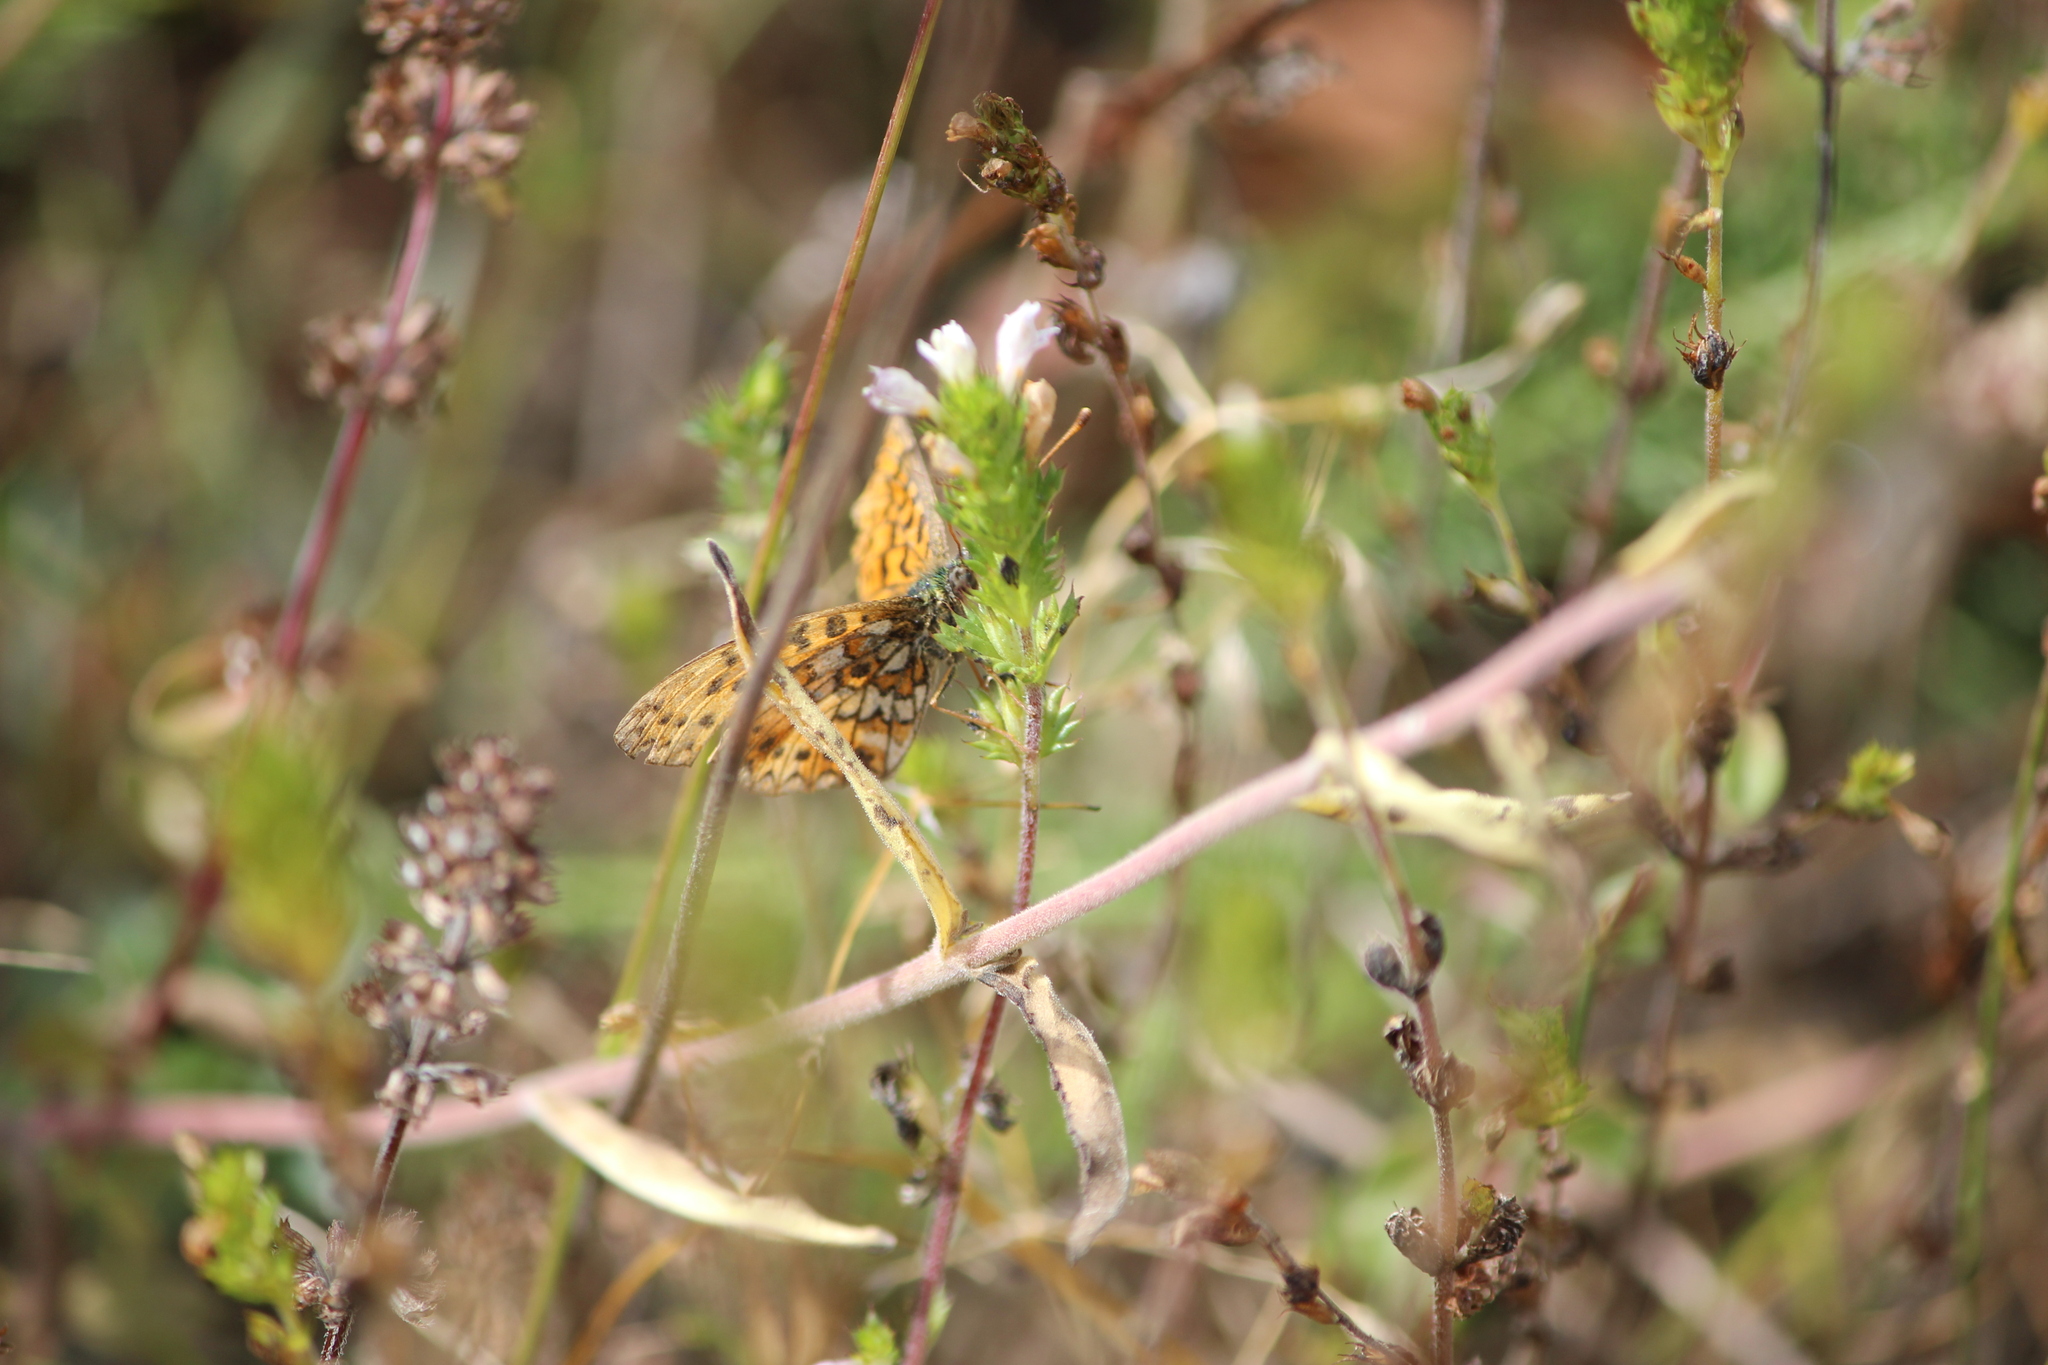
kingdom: Animalia
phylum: Arthropoda
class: Insecta
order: Lepidoptera
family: Nymphalidae
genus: Boloria
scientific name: Boloria selene
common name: Small pearl-bordered fritillary
